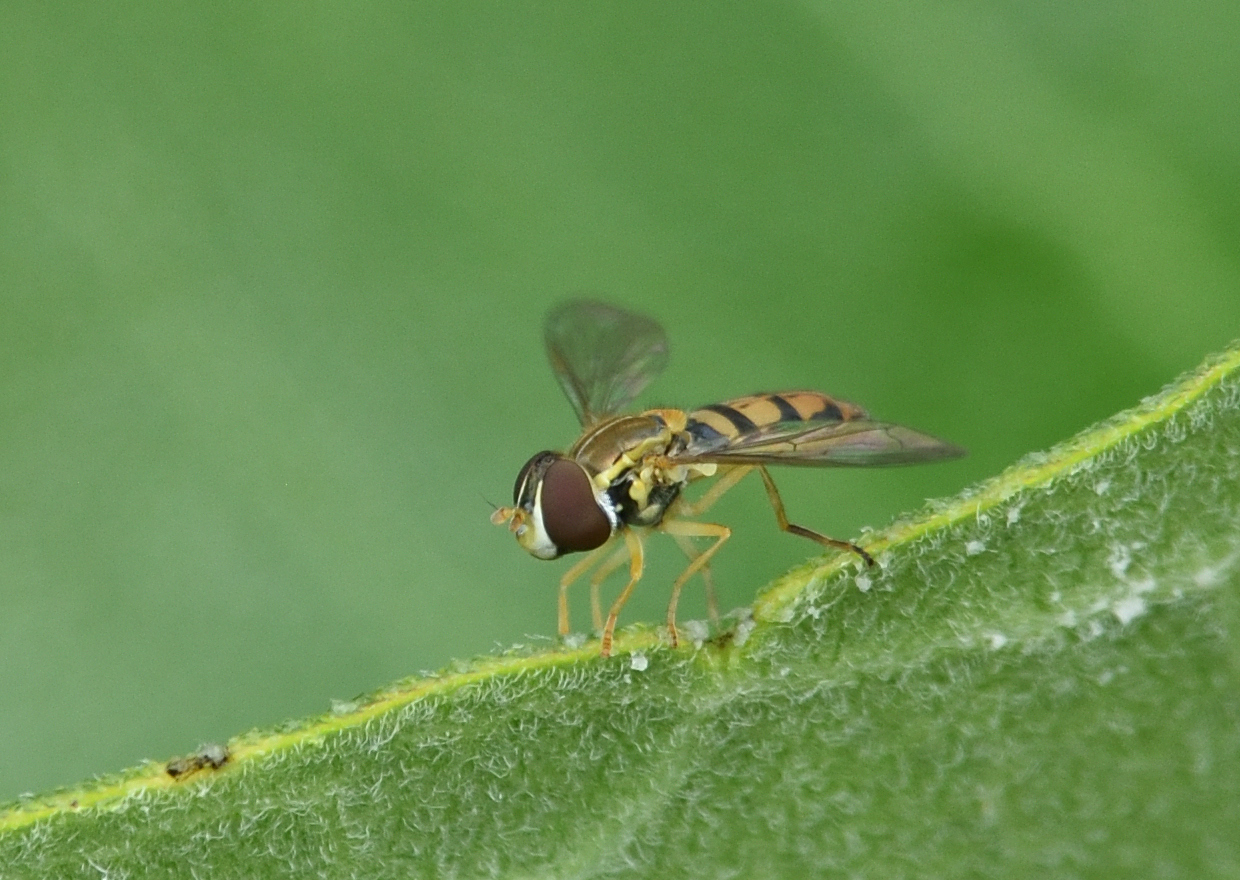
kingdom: Animalia
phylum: Arthropoda
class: Insecta
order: Diptera
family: Syrphidae
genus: Toxomerus
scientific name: Toxomerus marginatus
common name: Syrphid fly
